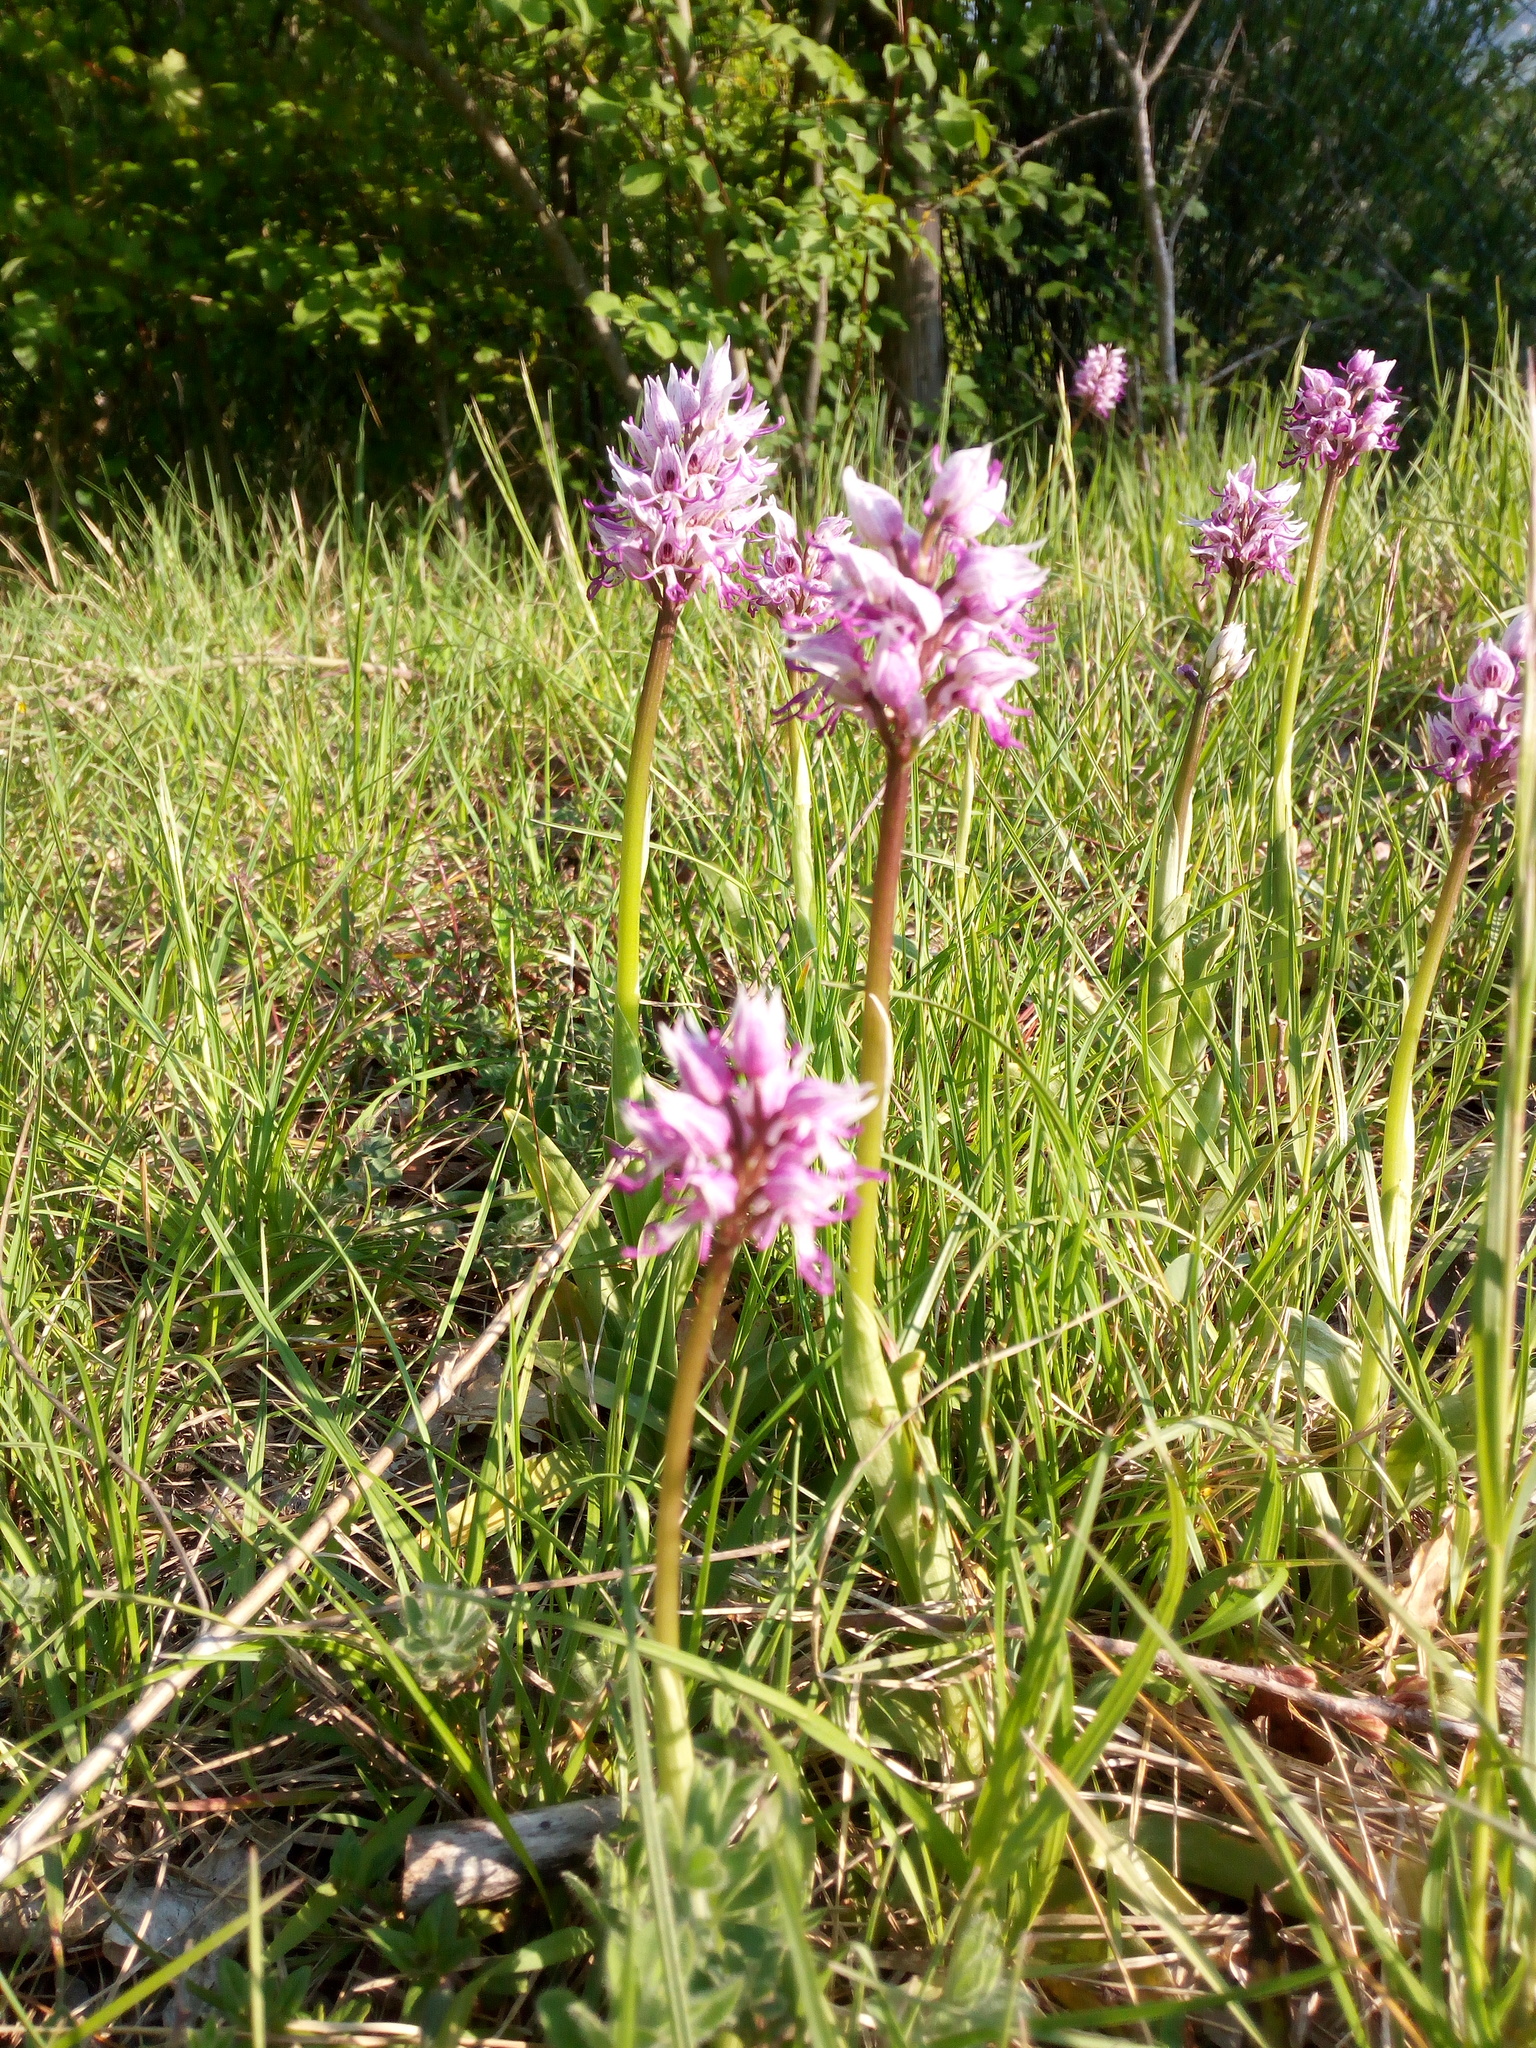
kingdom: Plantae
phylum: Tracheophyta
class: Liliopsida
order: Asparagales
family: Orchidaceae
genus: Orchis
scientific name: Orchis simia
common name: Monkey orchid
